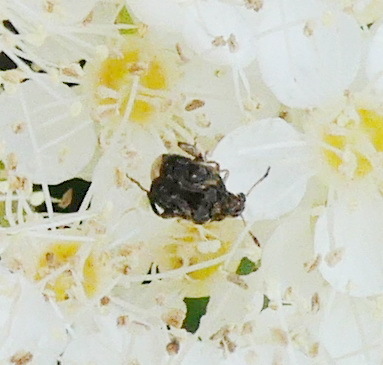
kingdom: Animalia
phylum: Arthropoda
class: Insecta
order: Coleoptera
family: Chrysomelidae
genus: Gibbobruchus
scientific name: Gibbobruchus mimus
